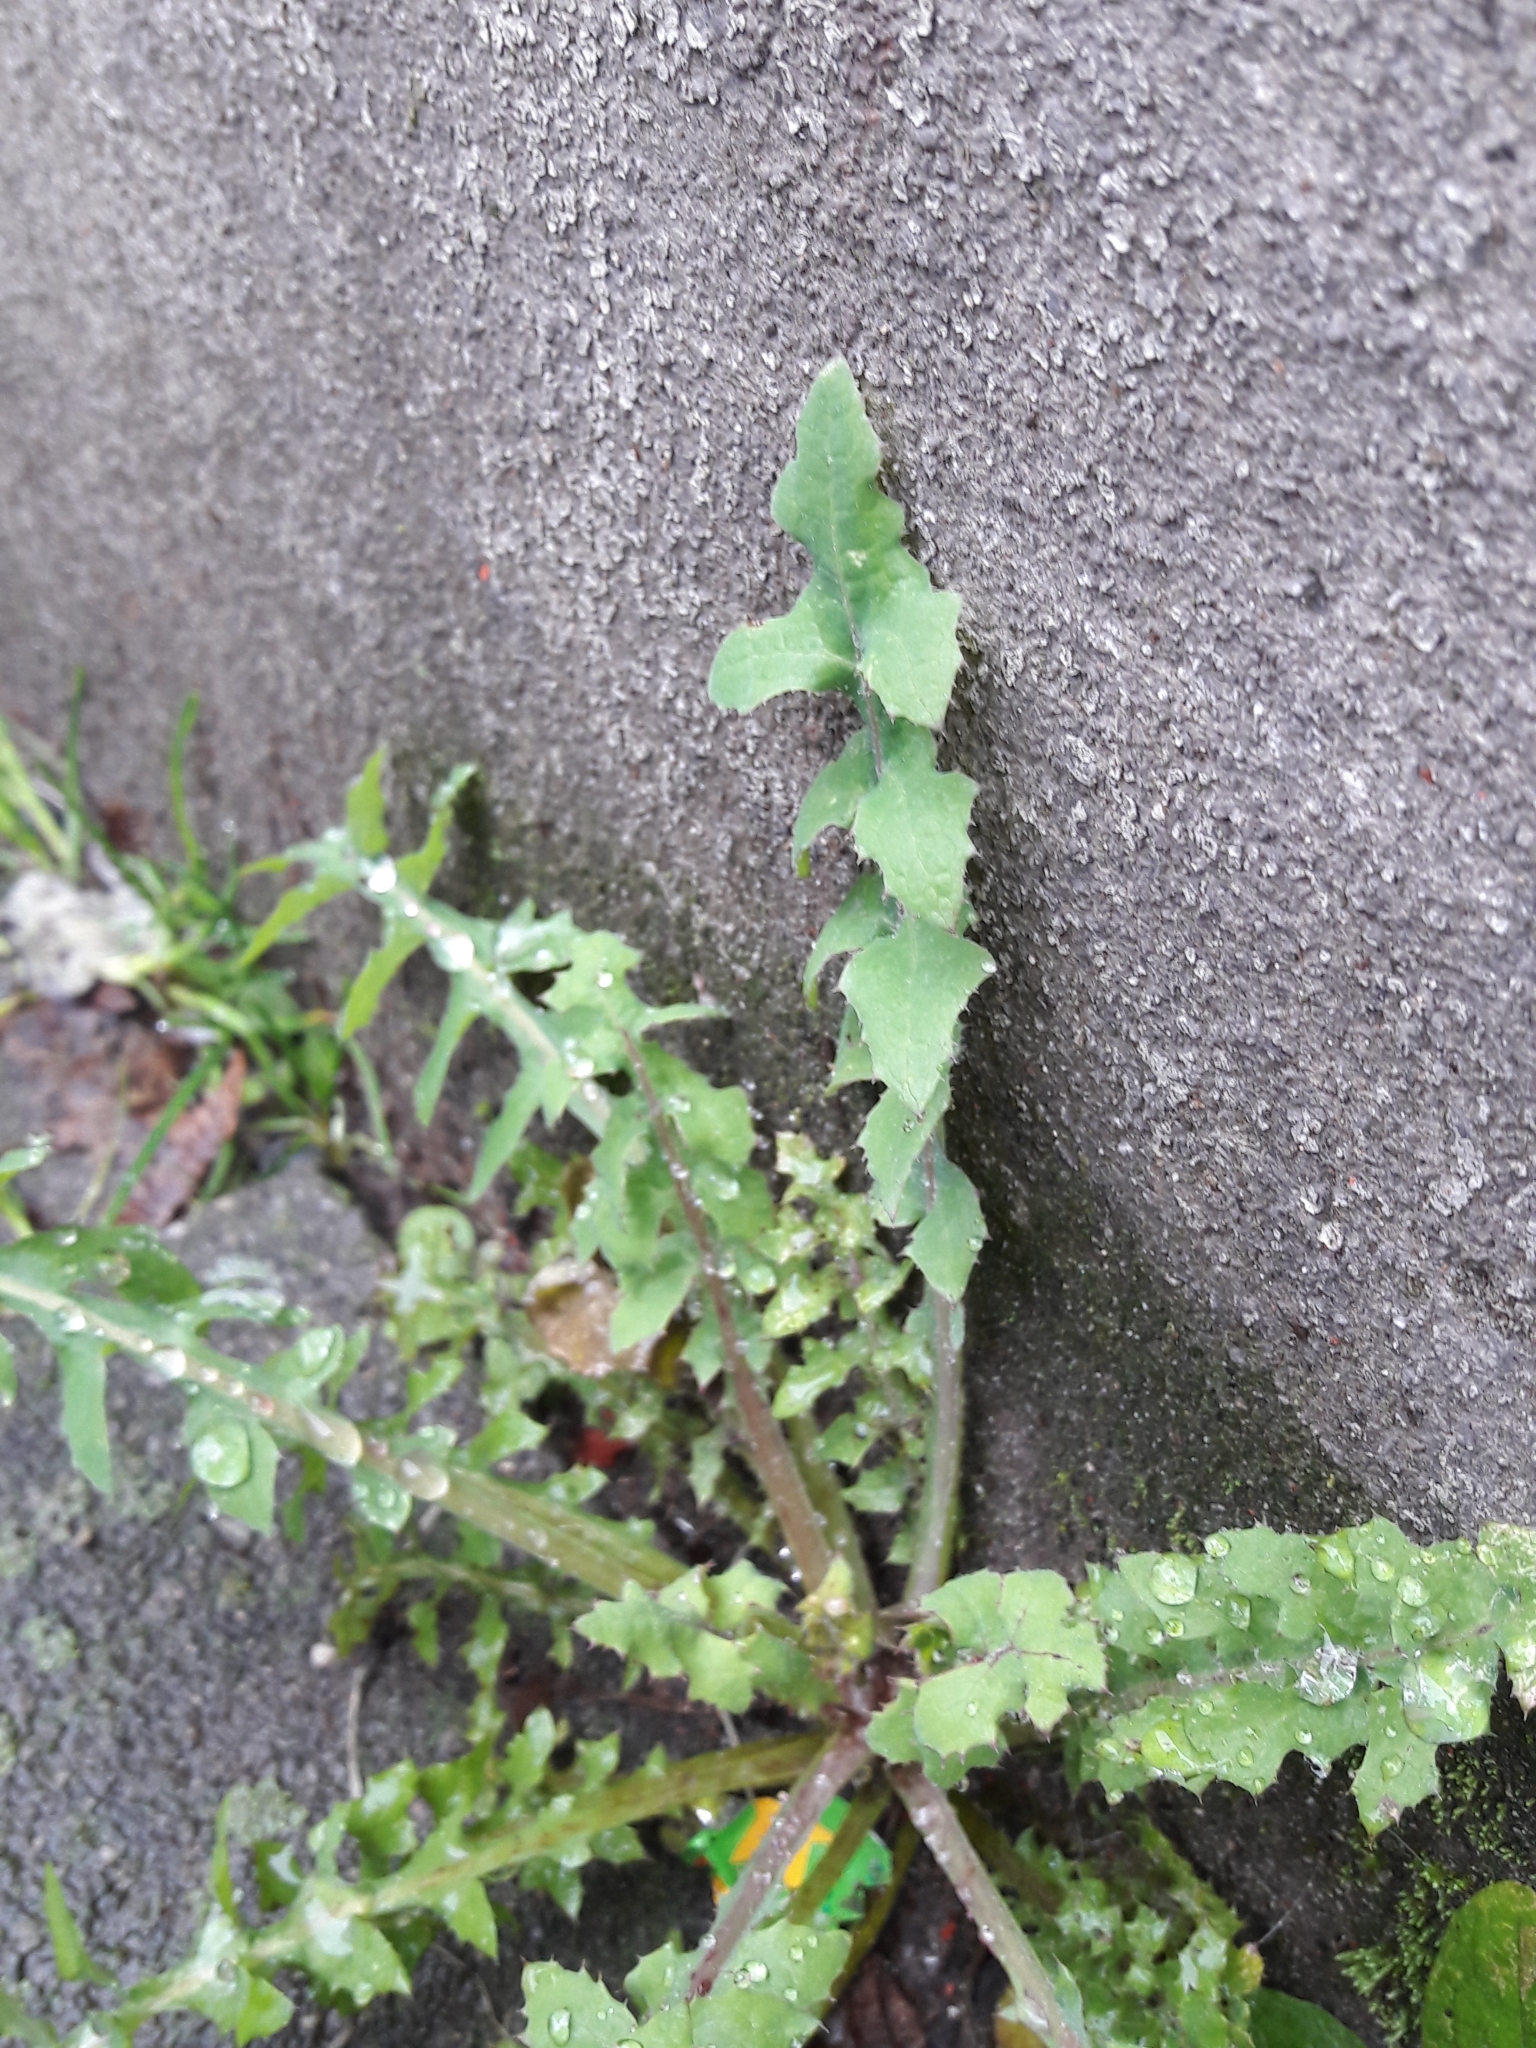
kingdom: Plantae
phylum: Tracheophyta
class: Magnoliopsida
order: Asterales
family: Asteraceae
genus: Sonchus
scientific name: Sonchus oleraceus
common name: Common sowthistle
